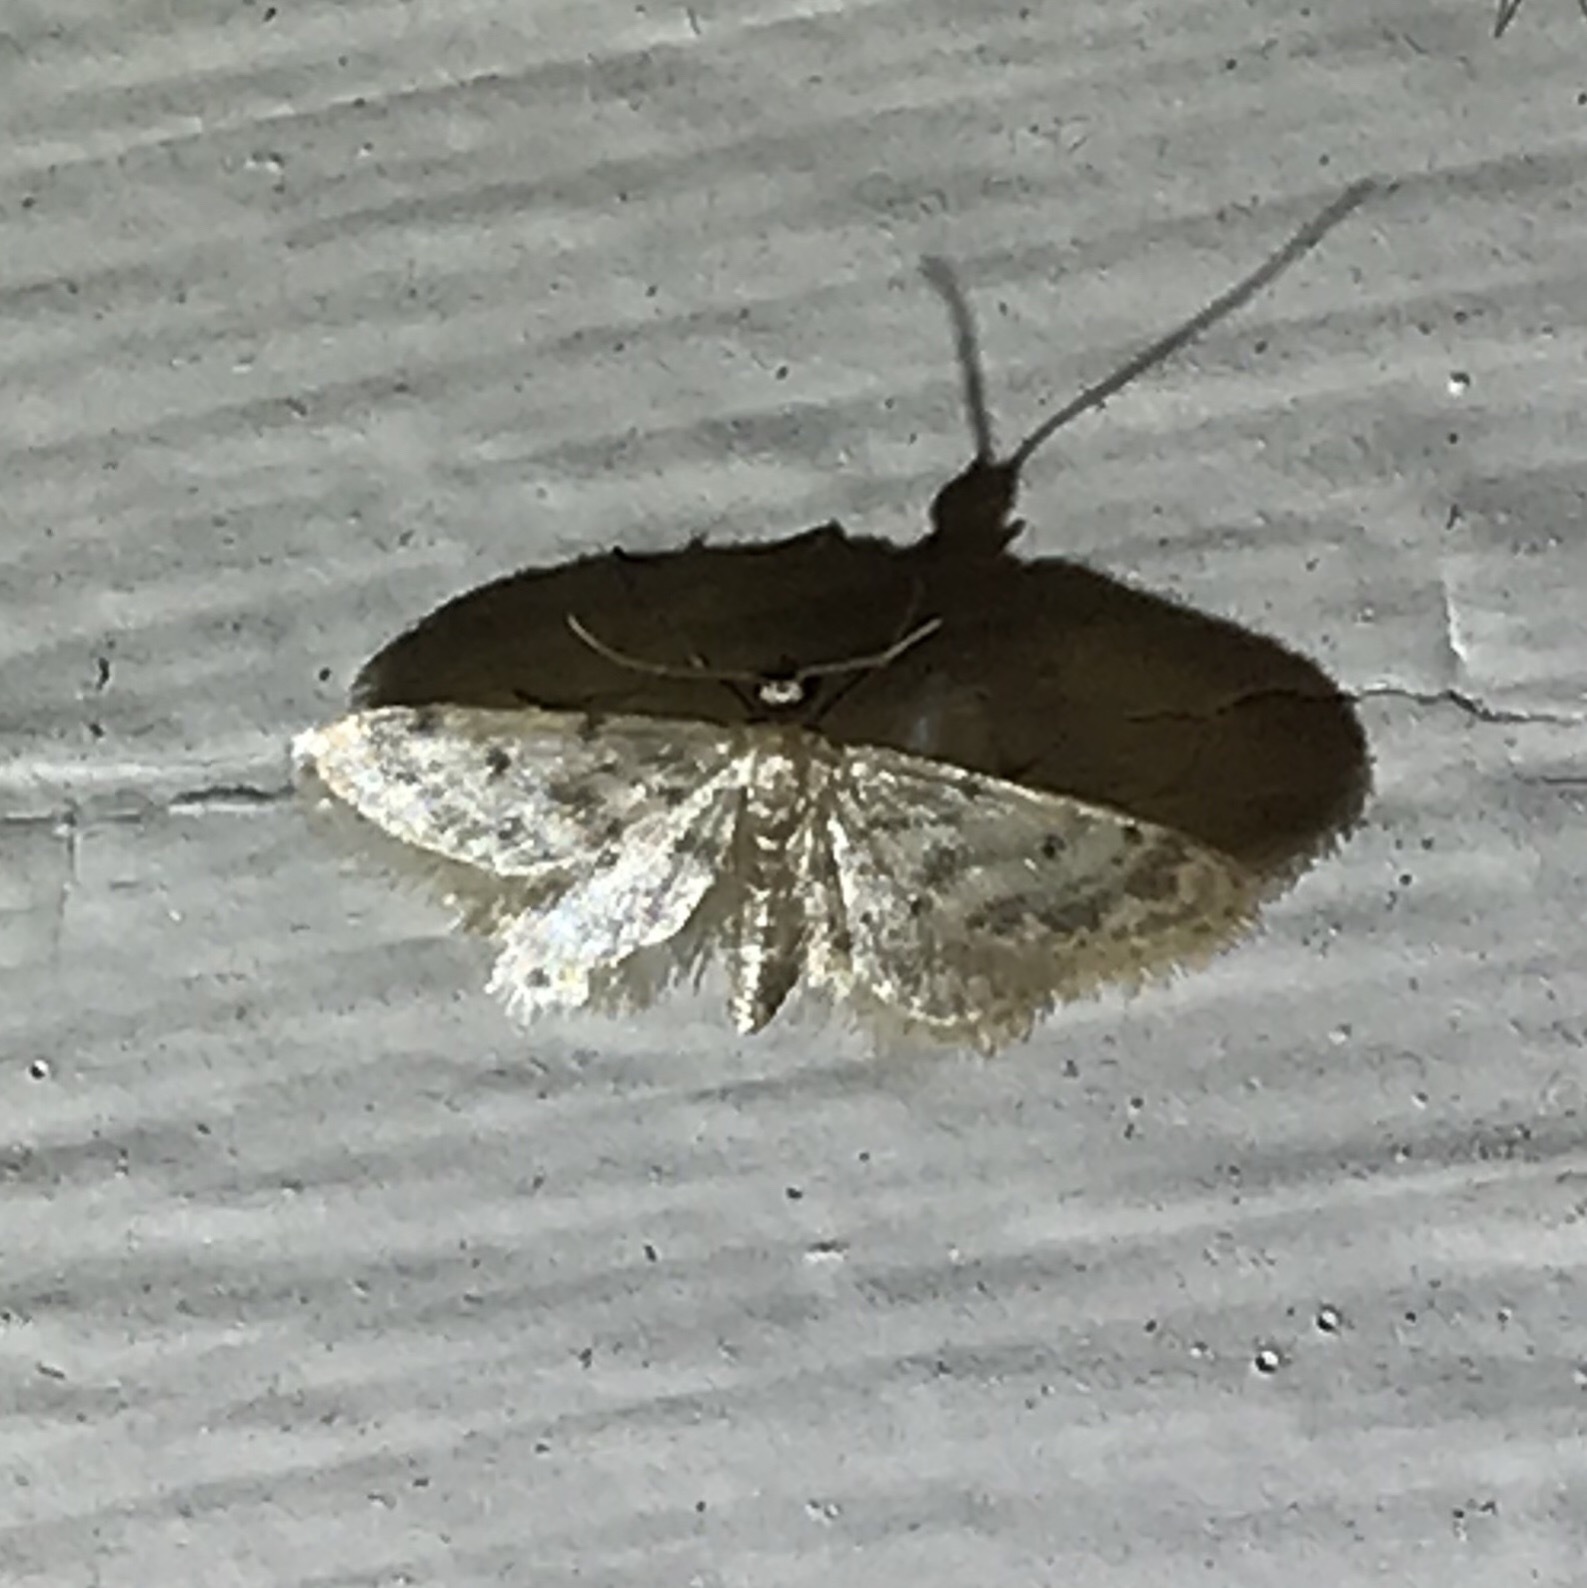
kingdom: Animalia
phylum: Arthropoda
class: Insecta
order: Lepidoptera
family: Geometridae
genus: Idaea
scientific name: Idaea bonifata
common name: Fortunate wave
